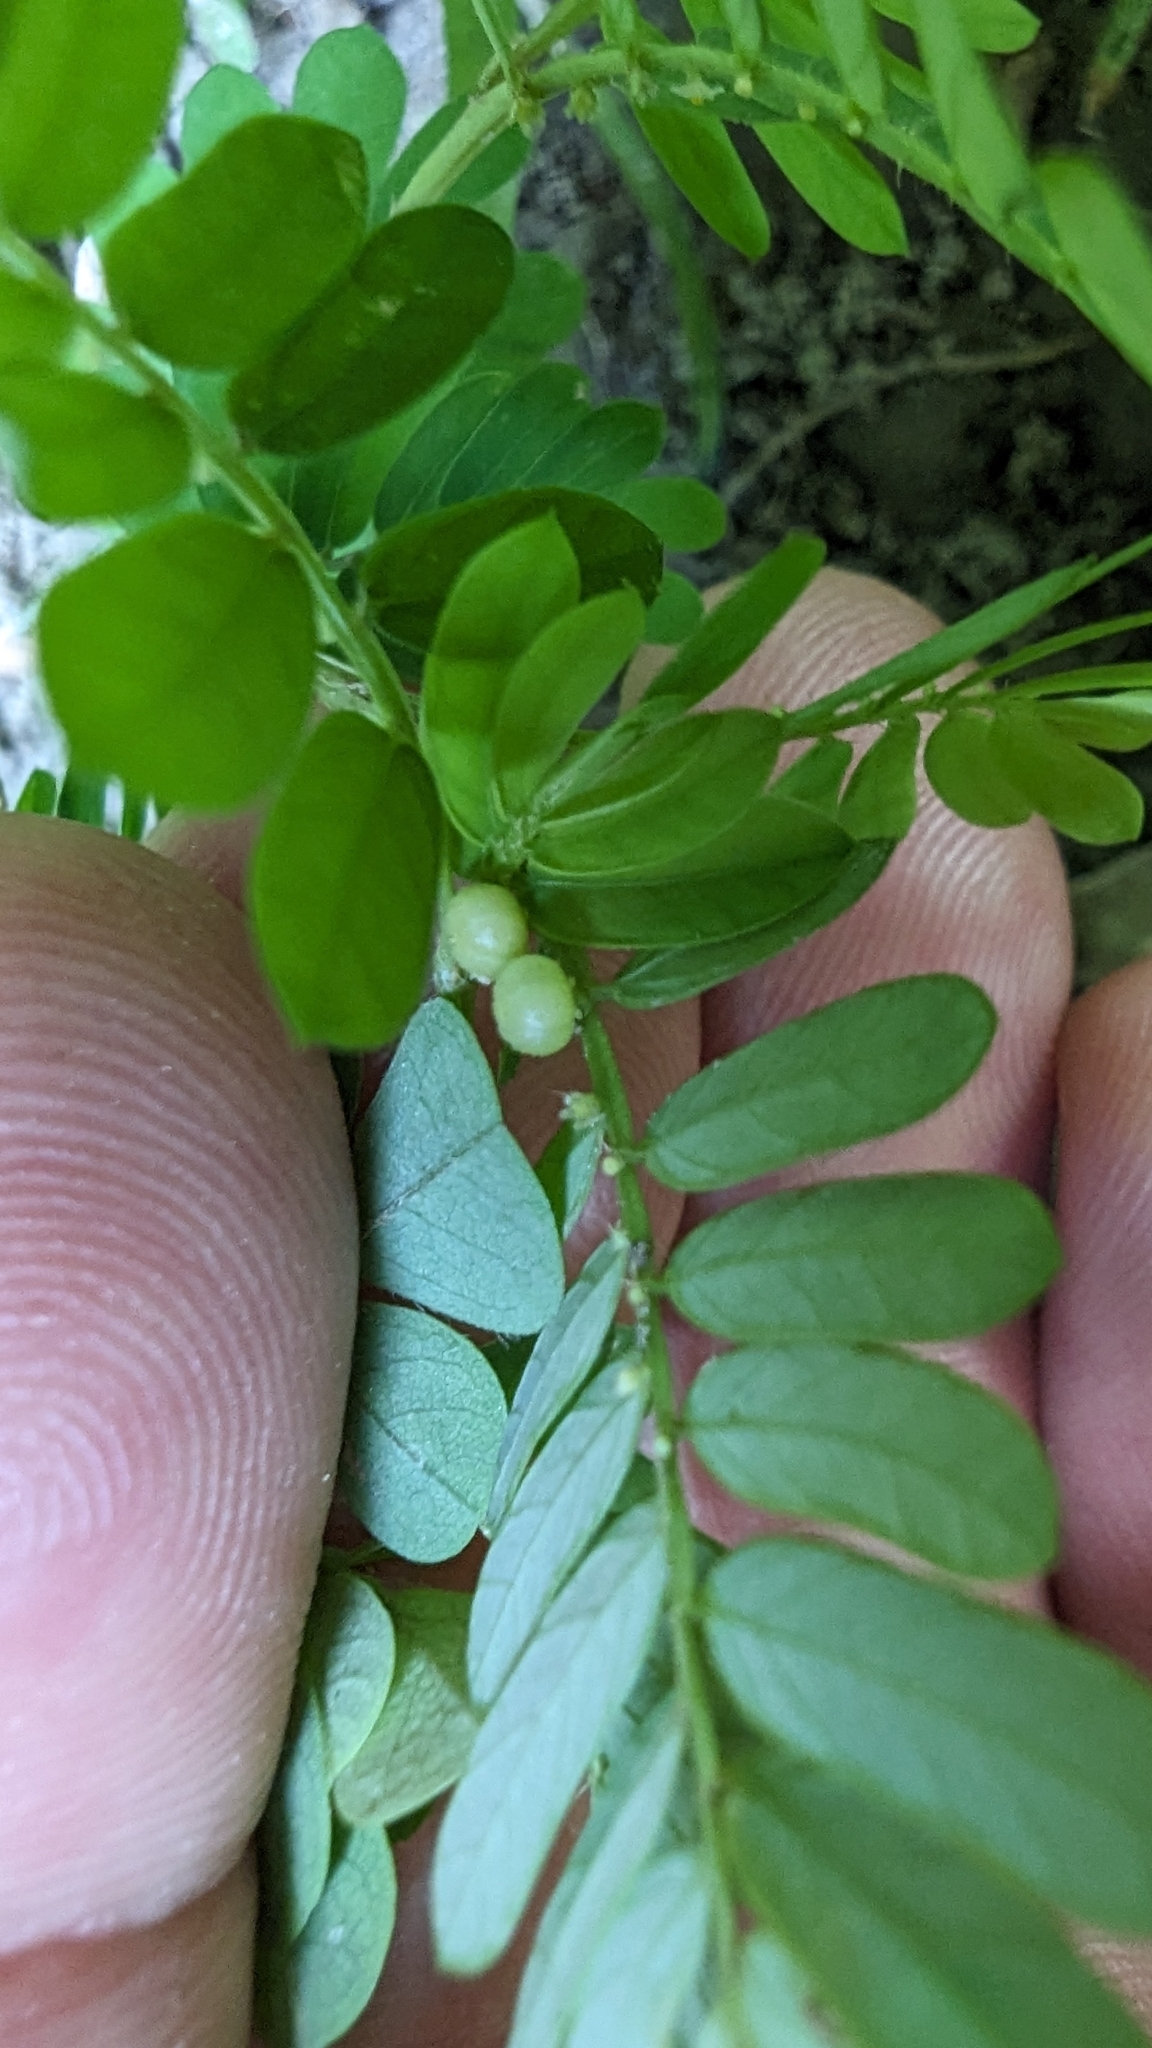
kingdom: Plantae
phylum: Tracheophyta
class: Magnoliopsida
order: Malpighiales
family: Phyllanthaceae
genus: Phyllanthus
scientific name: Phyllanthus urinaria
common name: Chamber bitter
